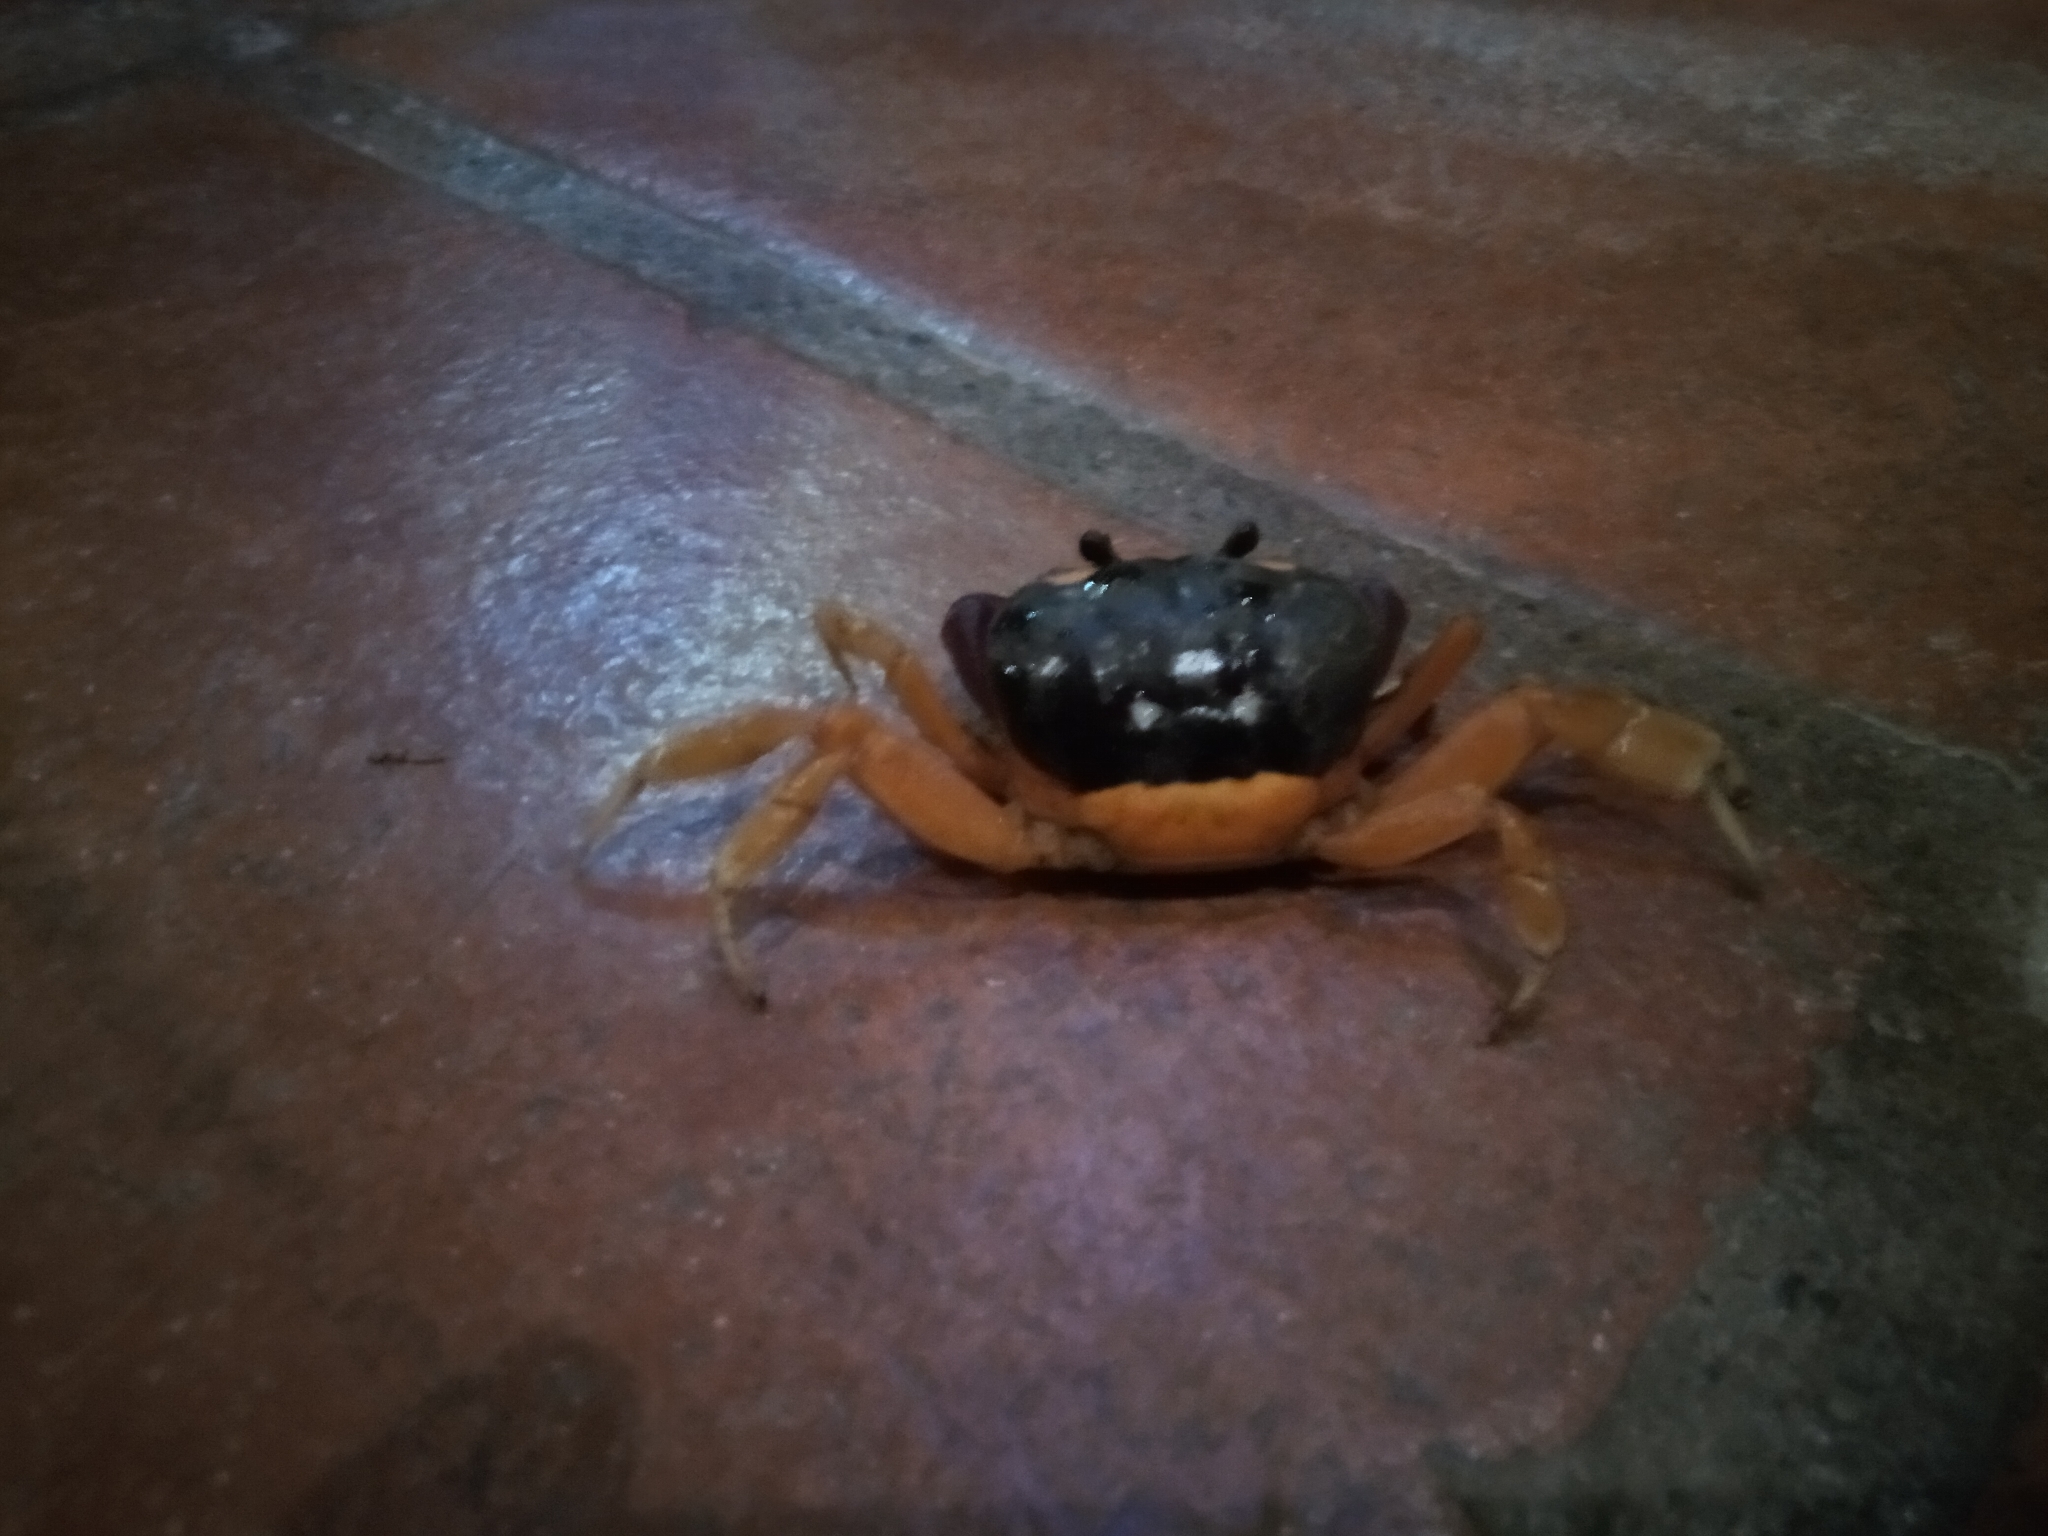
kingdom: Animalia
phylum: Arthropoda
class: Malacostraca
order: Decapoda
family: Gecarcinidae
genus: Gecarcinus
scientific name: Gecarcinus quadratus
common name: Halloween crab
